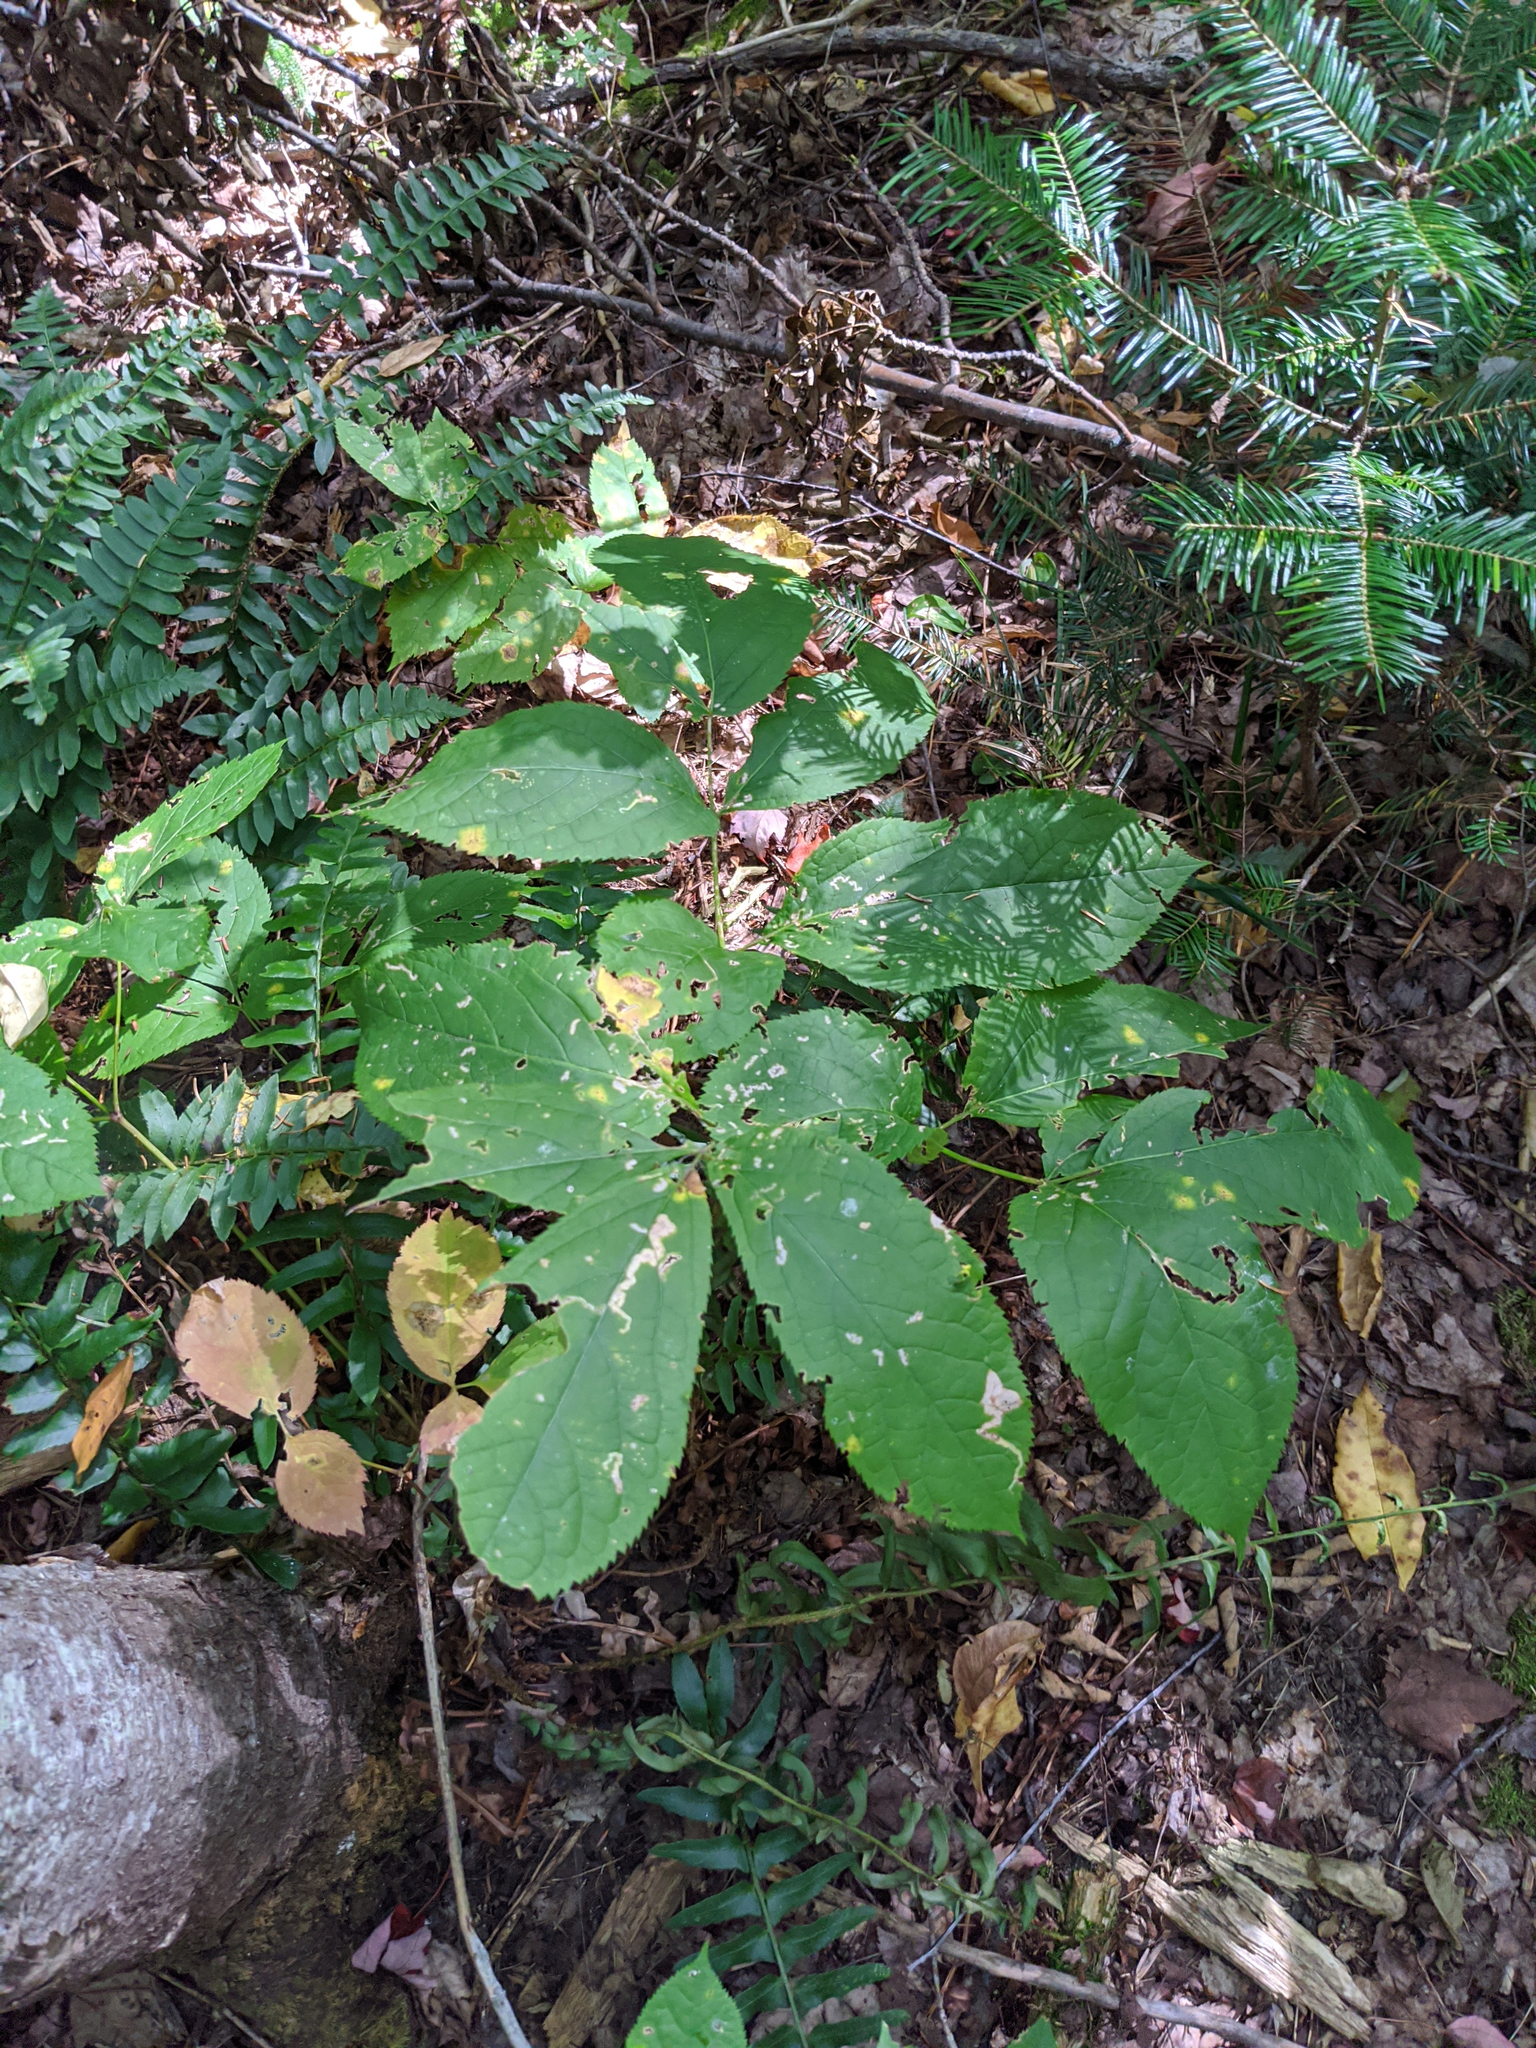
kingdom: Plantae
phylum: Tracheophyta
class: Magnoliopsida
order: Apiales
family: Araliaceae
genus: Aralia
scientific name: Aralia nudicaulis
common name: Wild sarsaparilla
